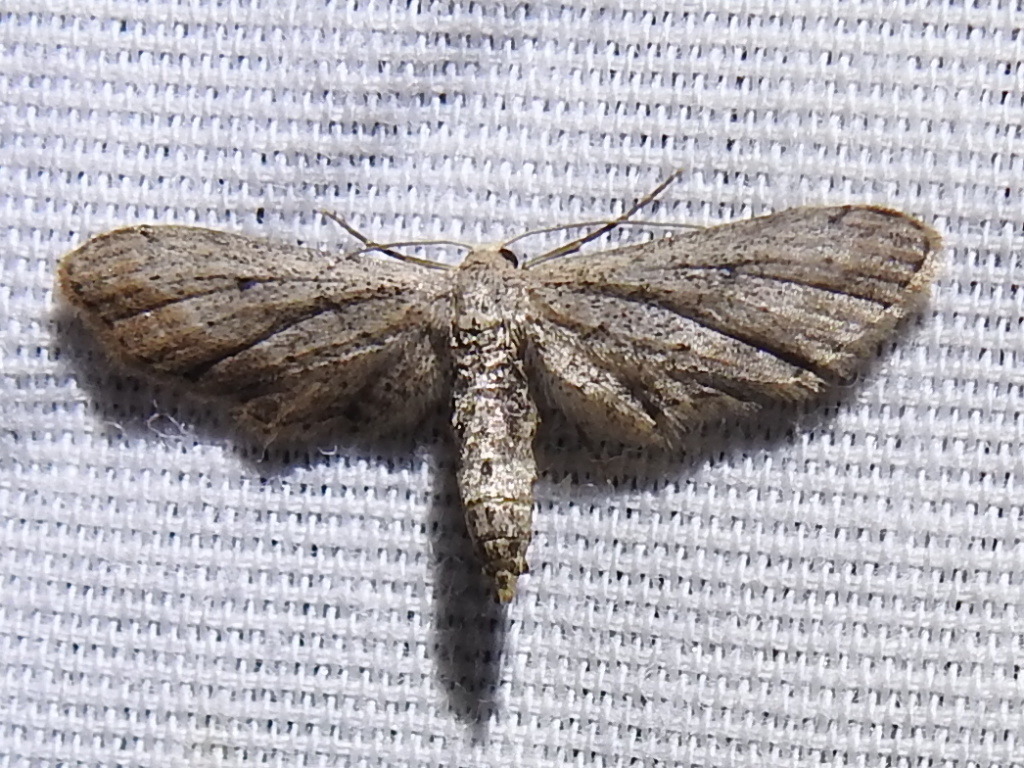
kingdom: Animalia
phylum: Arthropoda
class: Insecta
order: Lepidoptera
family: Geometridae
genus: Eumacrodes
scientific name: Eumacrodes yponomeutaria
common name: Slender geometrid moth
